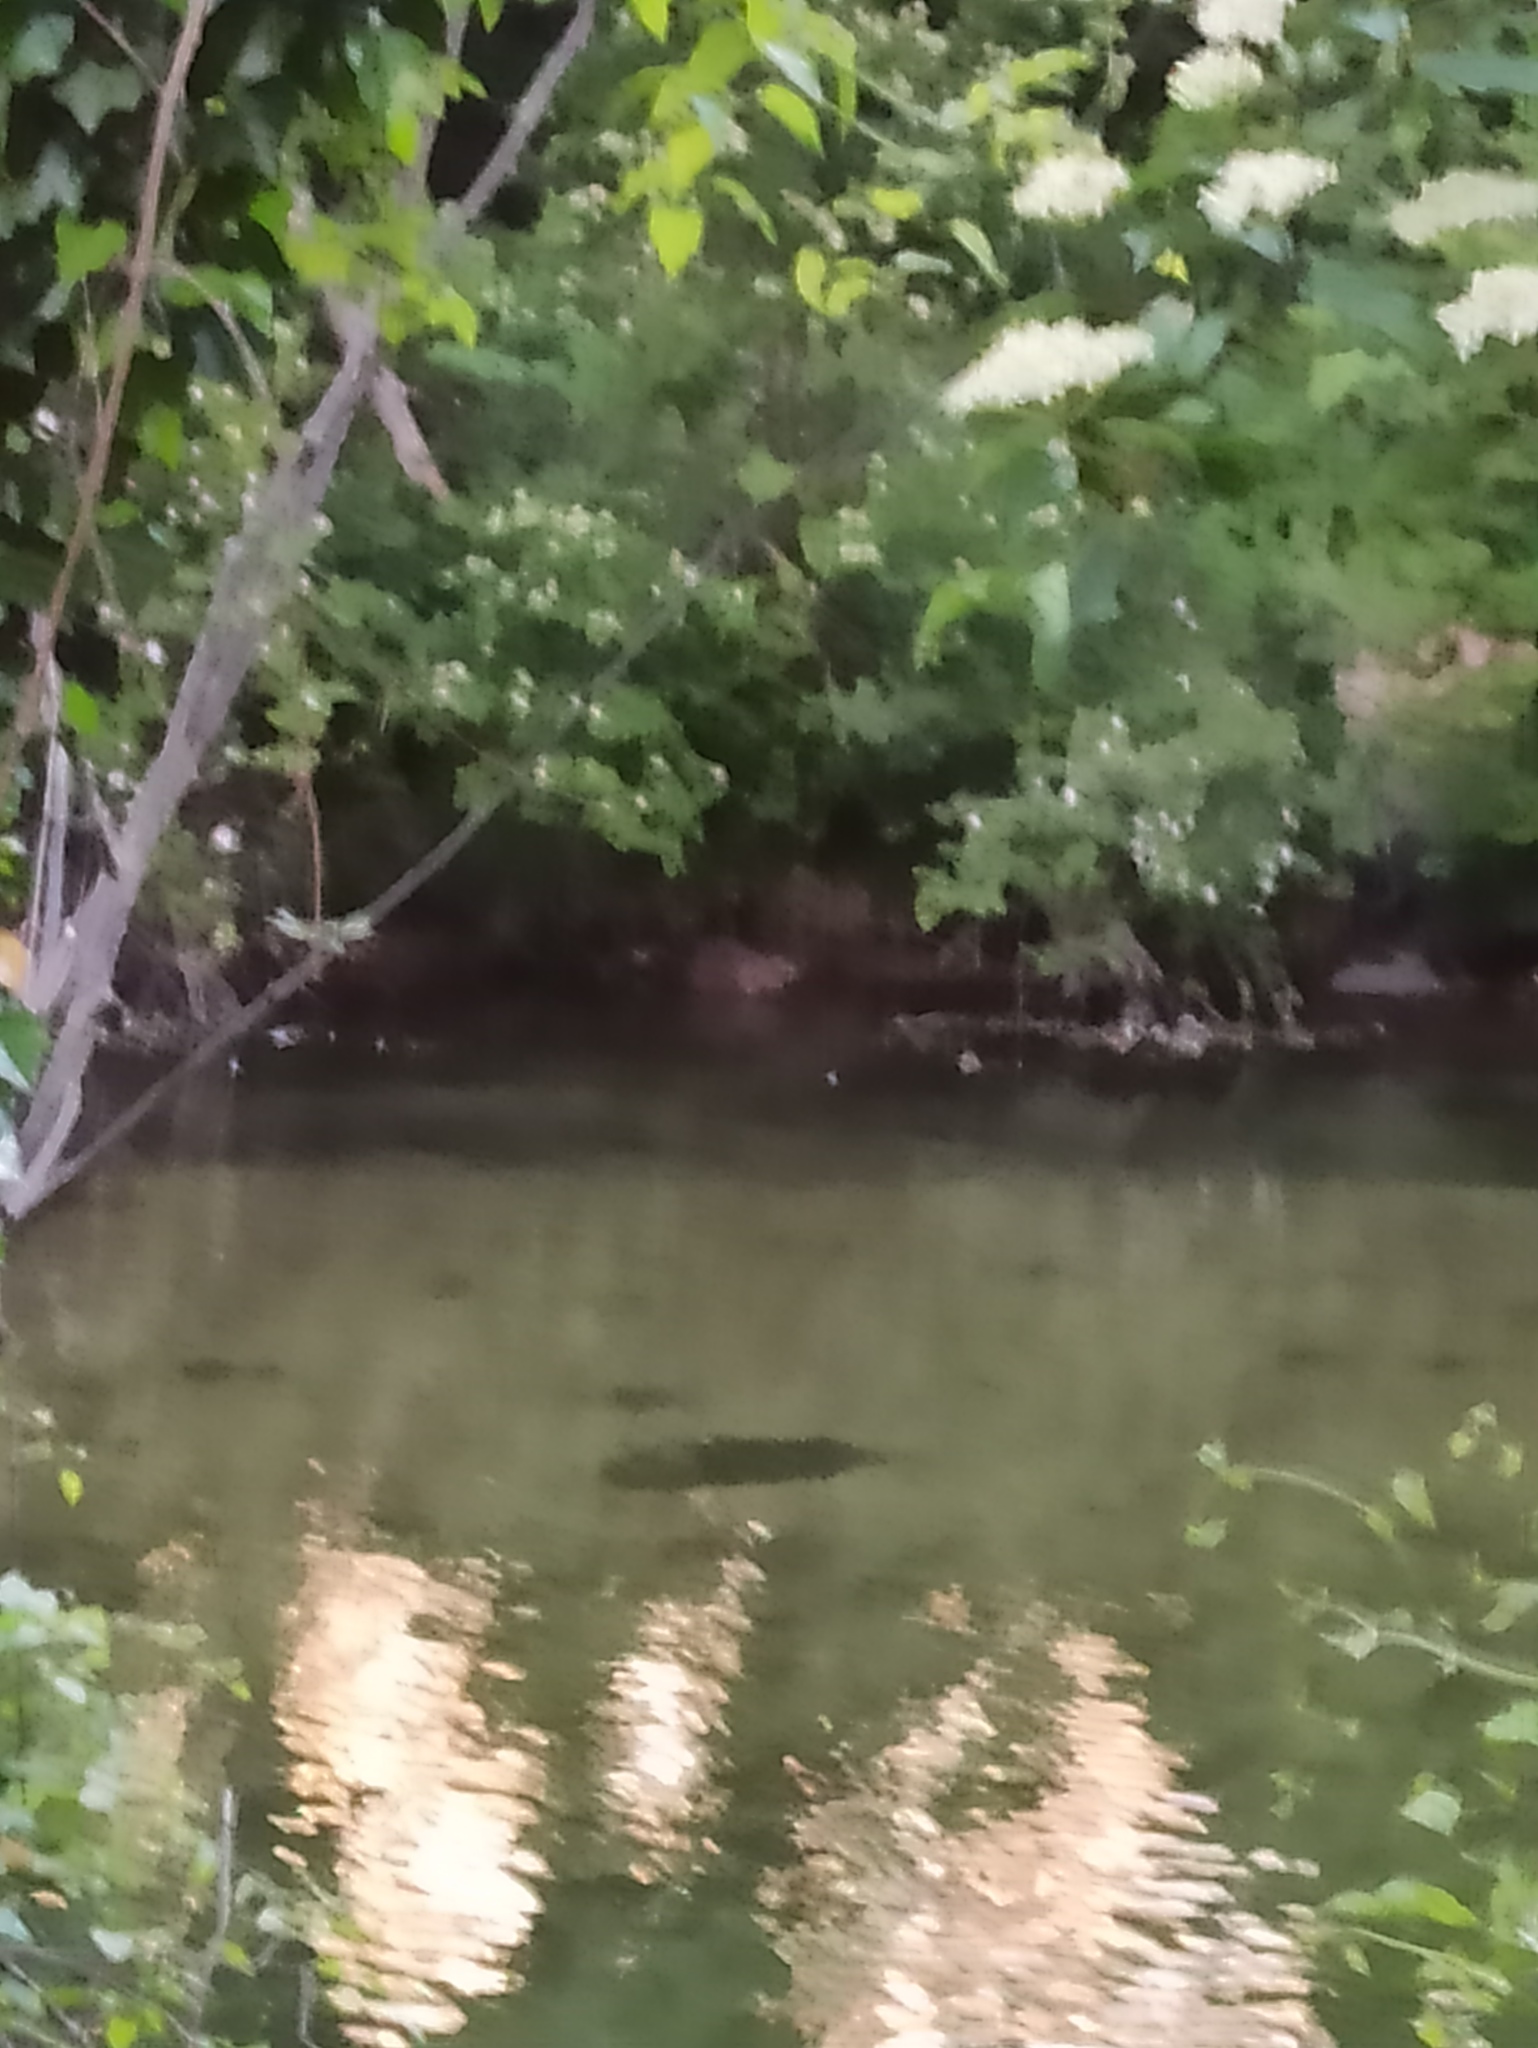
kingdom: Animalia
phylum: Chordata
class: Mammalia
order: Rodentia
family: Castoridae
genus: Castor
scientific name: Castor fiber
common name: Eurasian beaver
